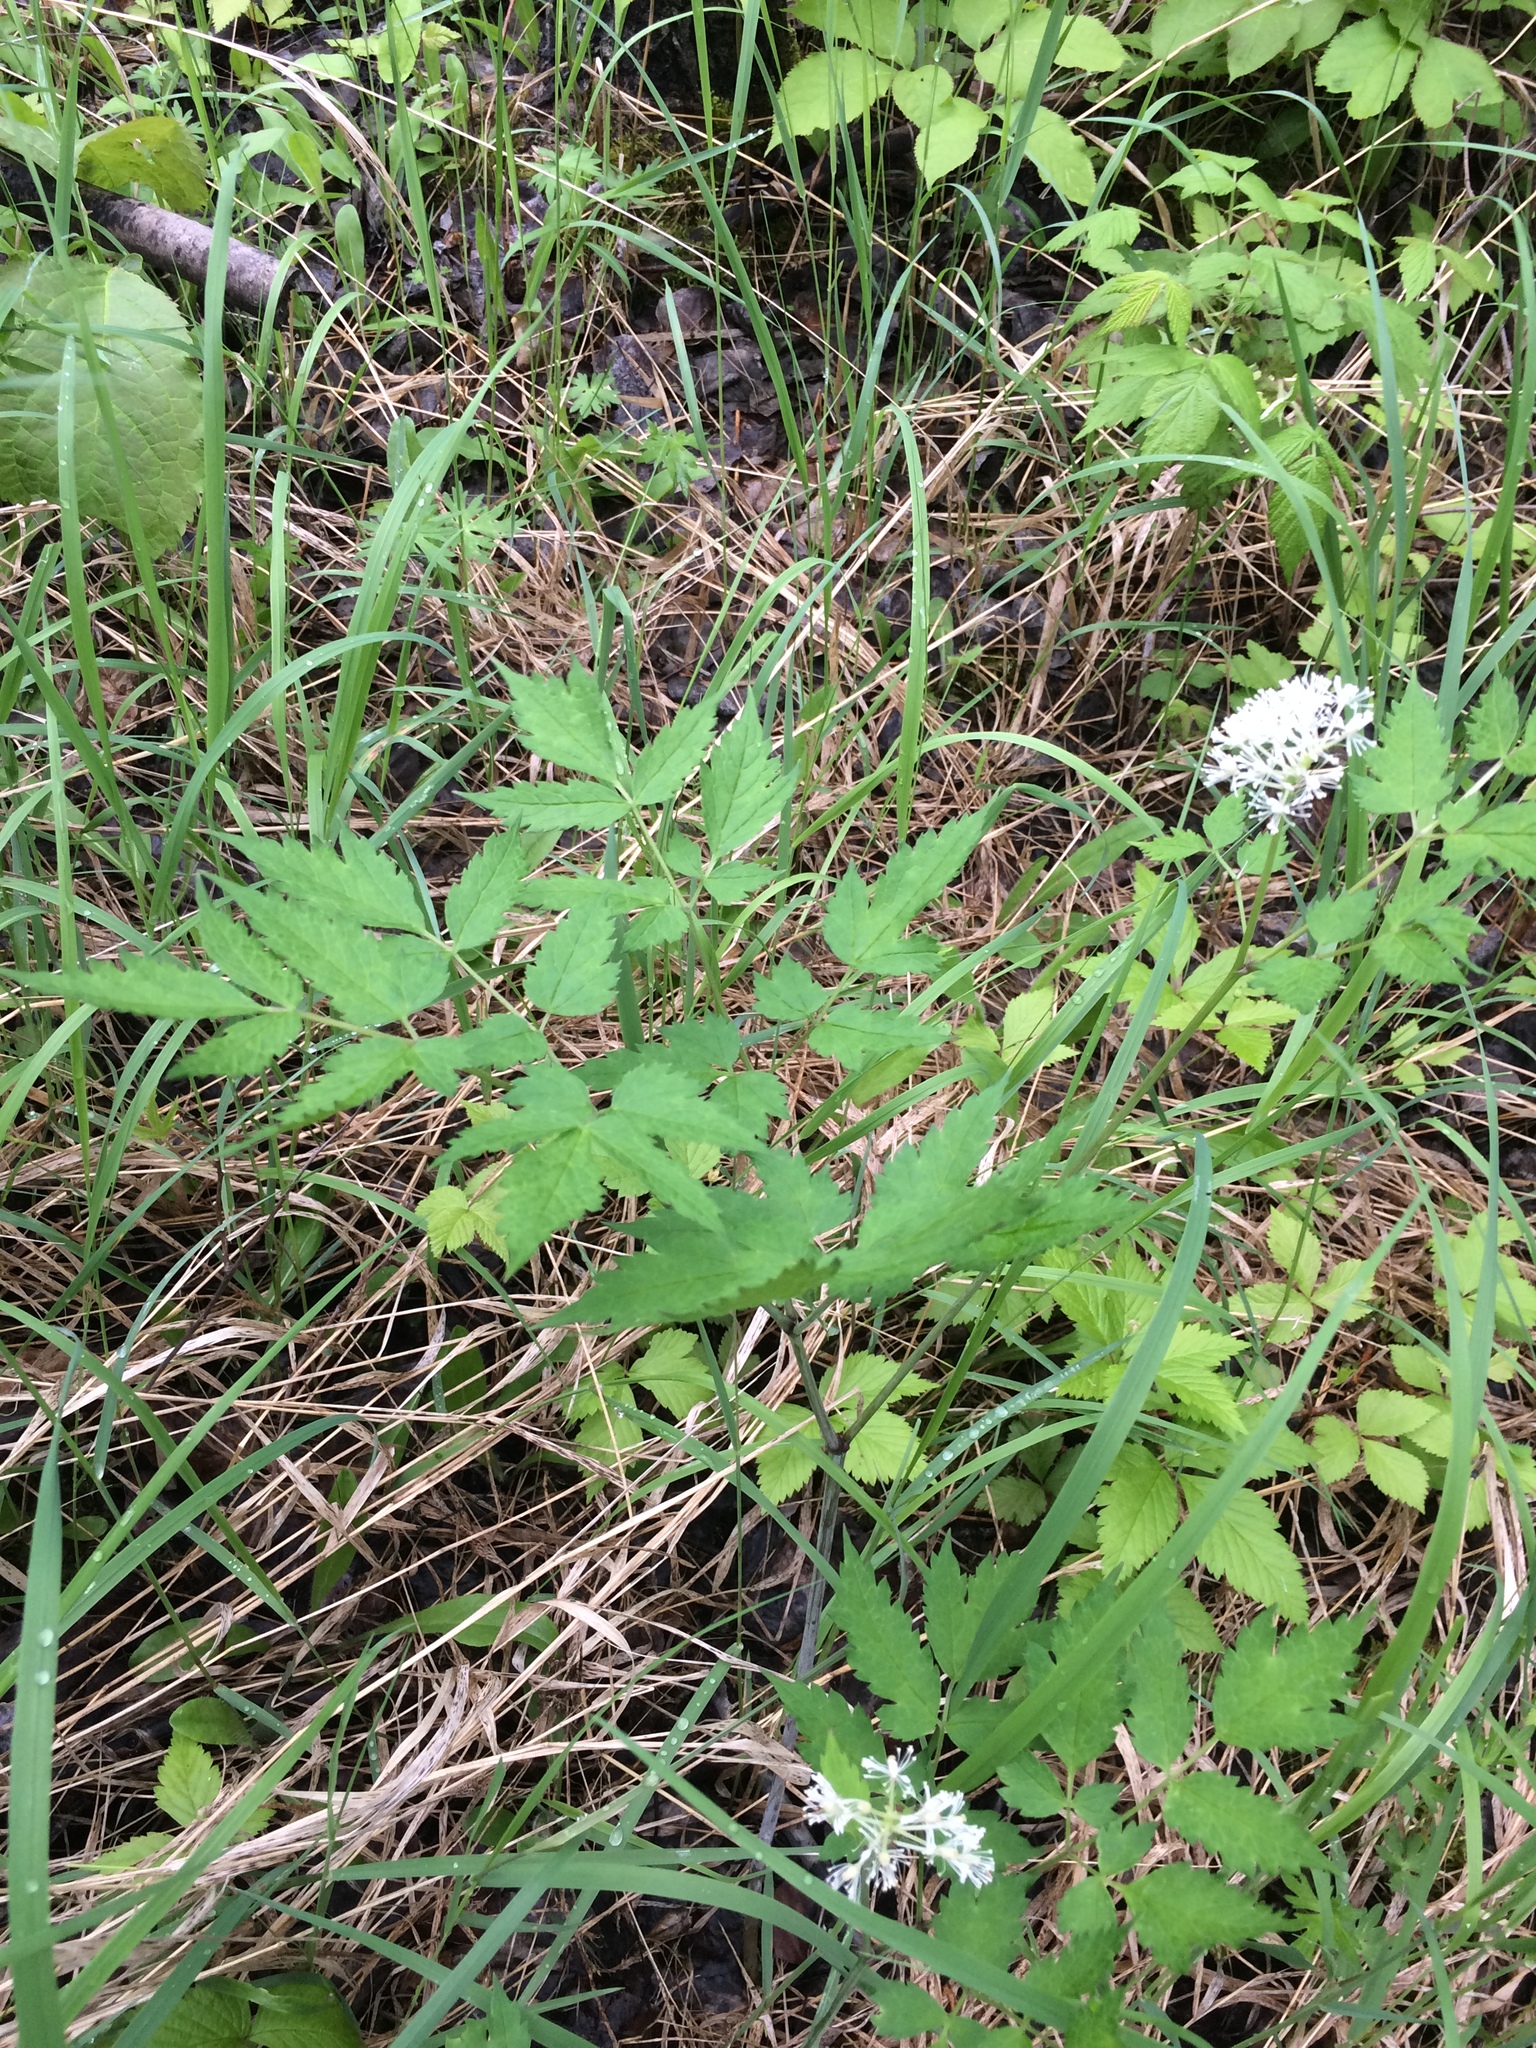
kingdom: Plantae
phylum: Tracheophyta
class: Magnoliopsida
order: Ranunculales
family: Ranunculaceae
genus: Actaea
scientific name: Actaea rubra
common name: Red baneberry
